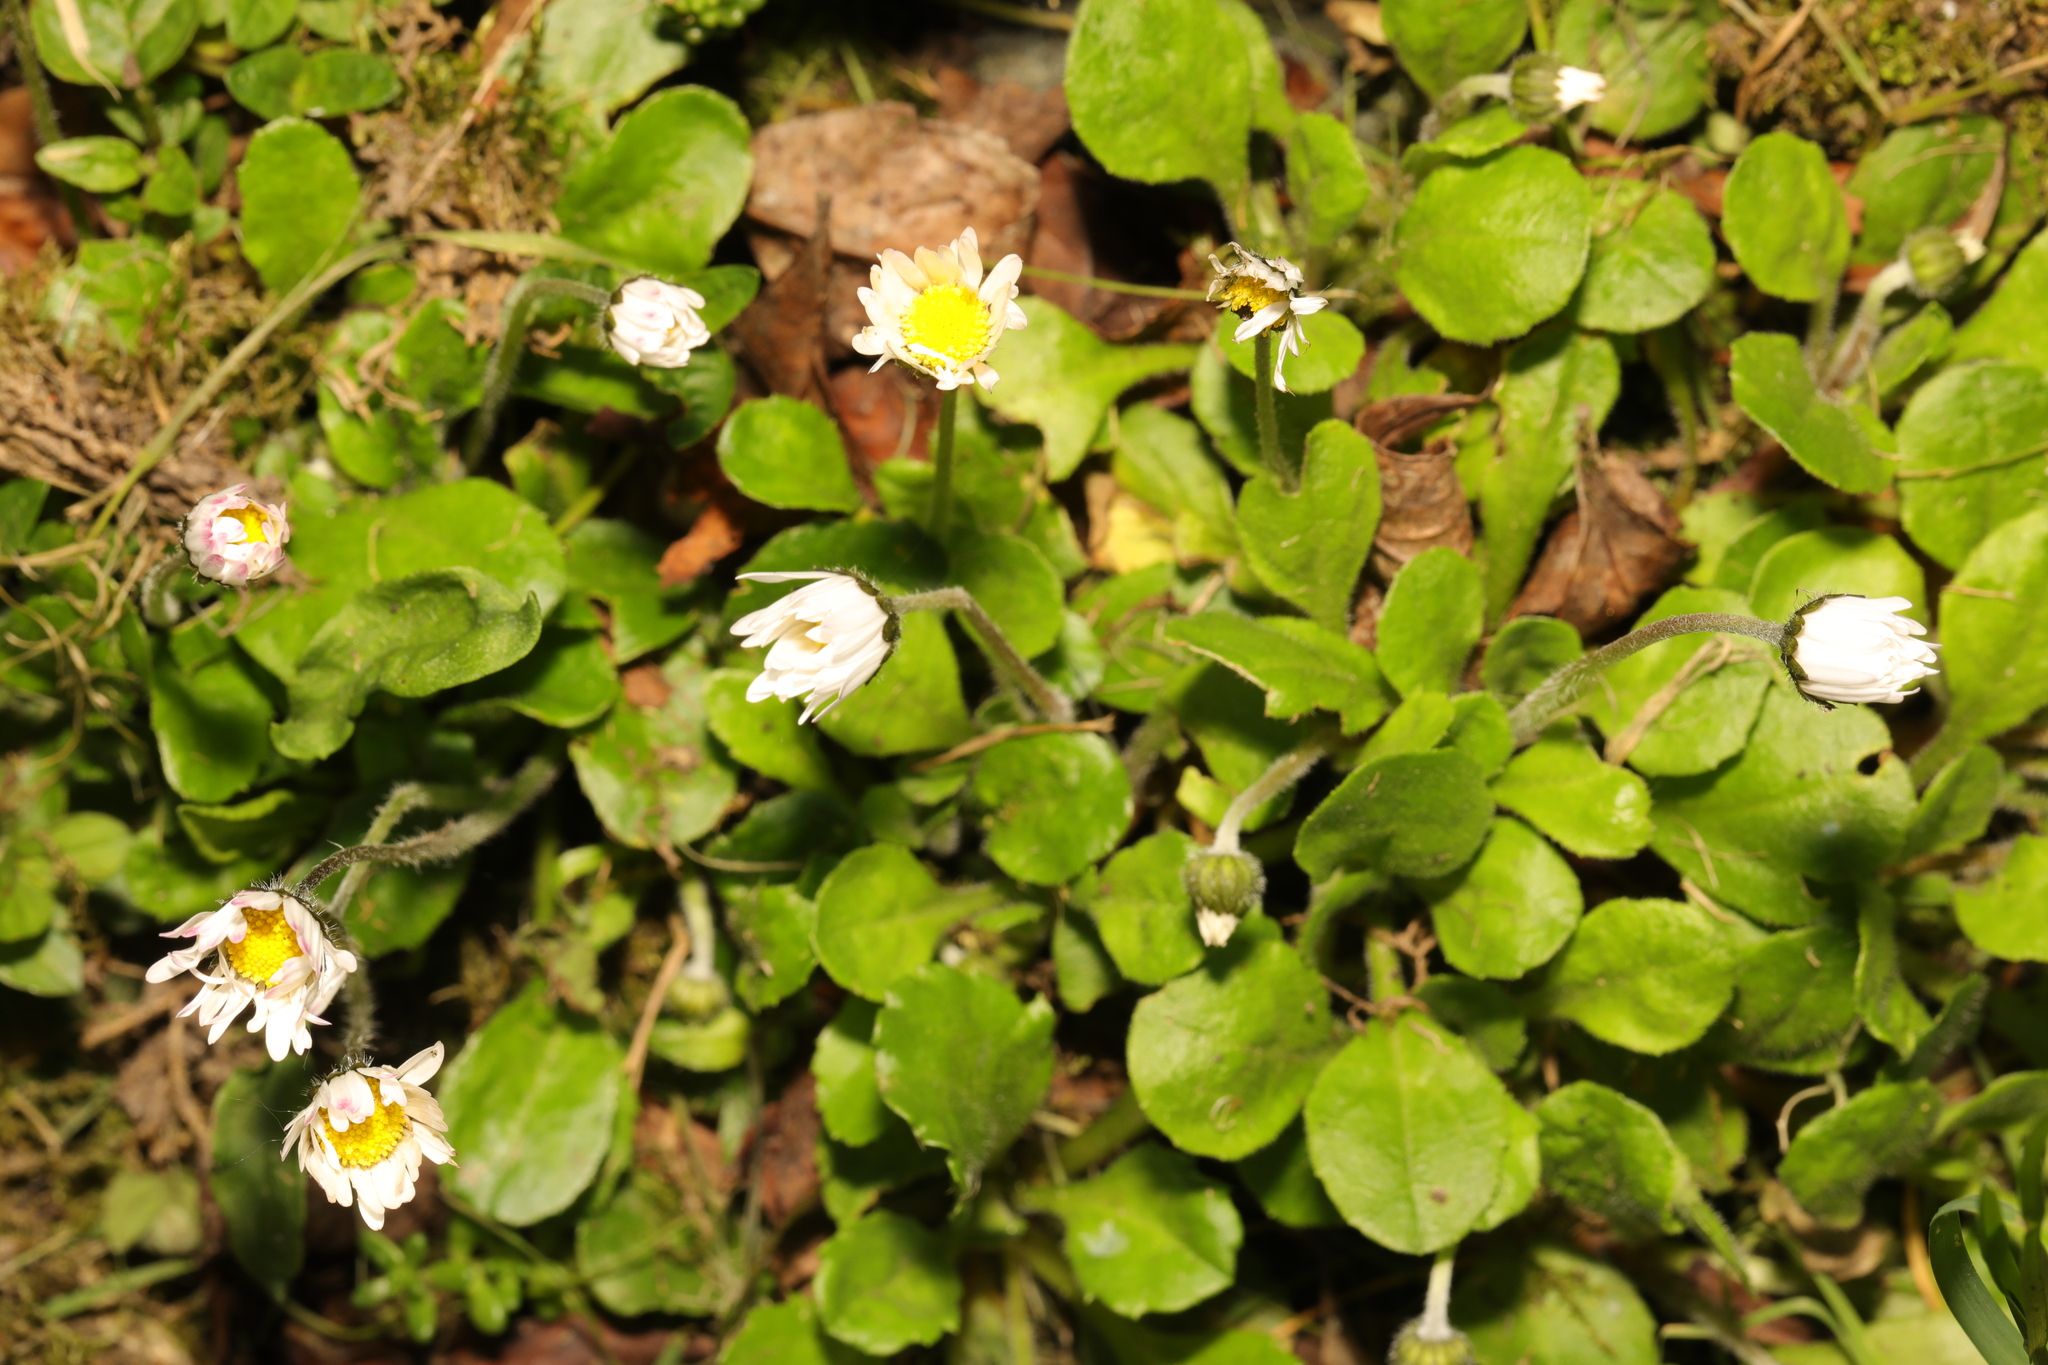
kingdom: Plantae
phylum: Tracheophyta
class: Magnoliopsida
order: Asterales
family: Asteraceae
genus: Bellis
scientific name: Bellis perennis
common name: Lawndaisy
